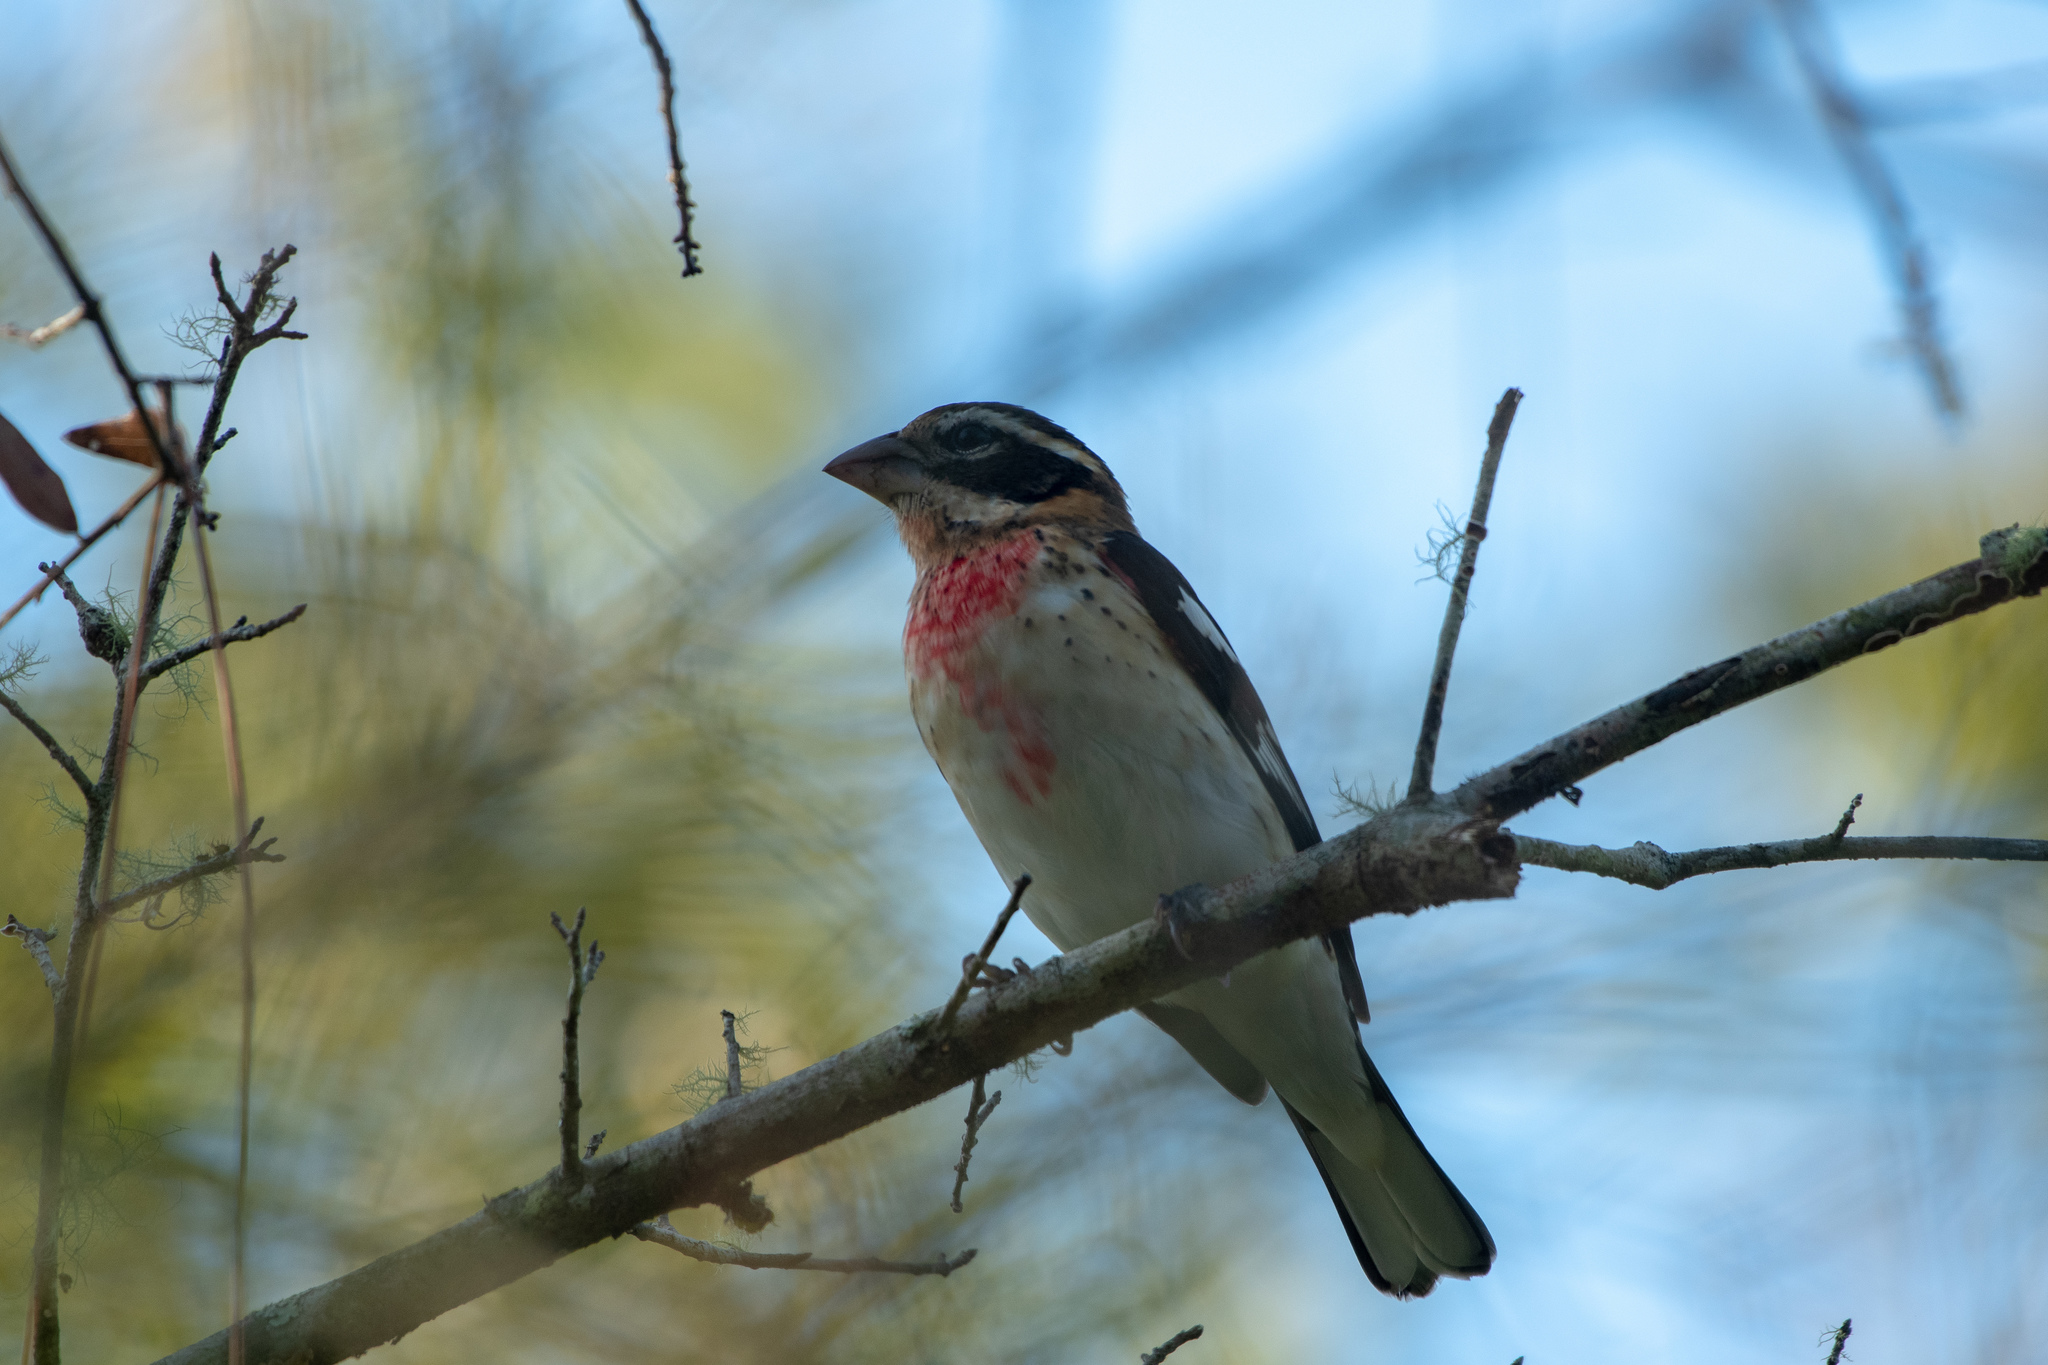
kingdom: Animalia
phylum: Chordata
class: Aves
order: Passeriformes
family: Cardinalidae
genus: Pheucticus
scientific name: Pheucticus ludovicianus
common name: Rose-breasted grosbeak
